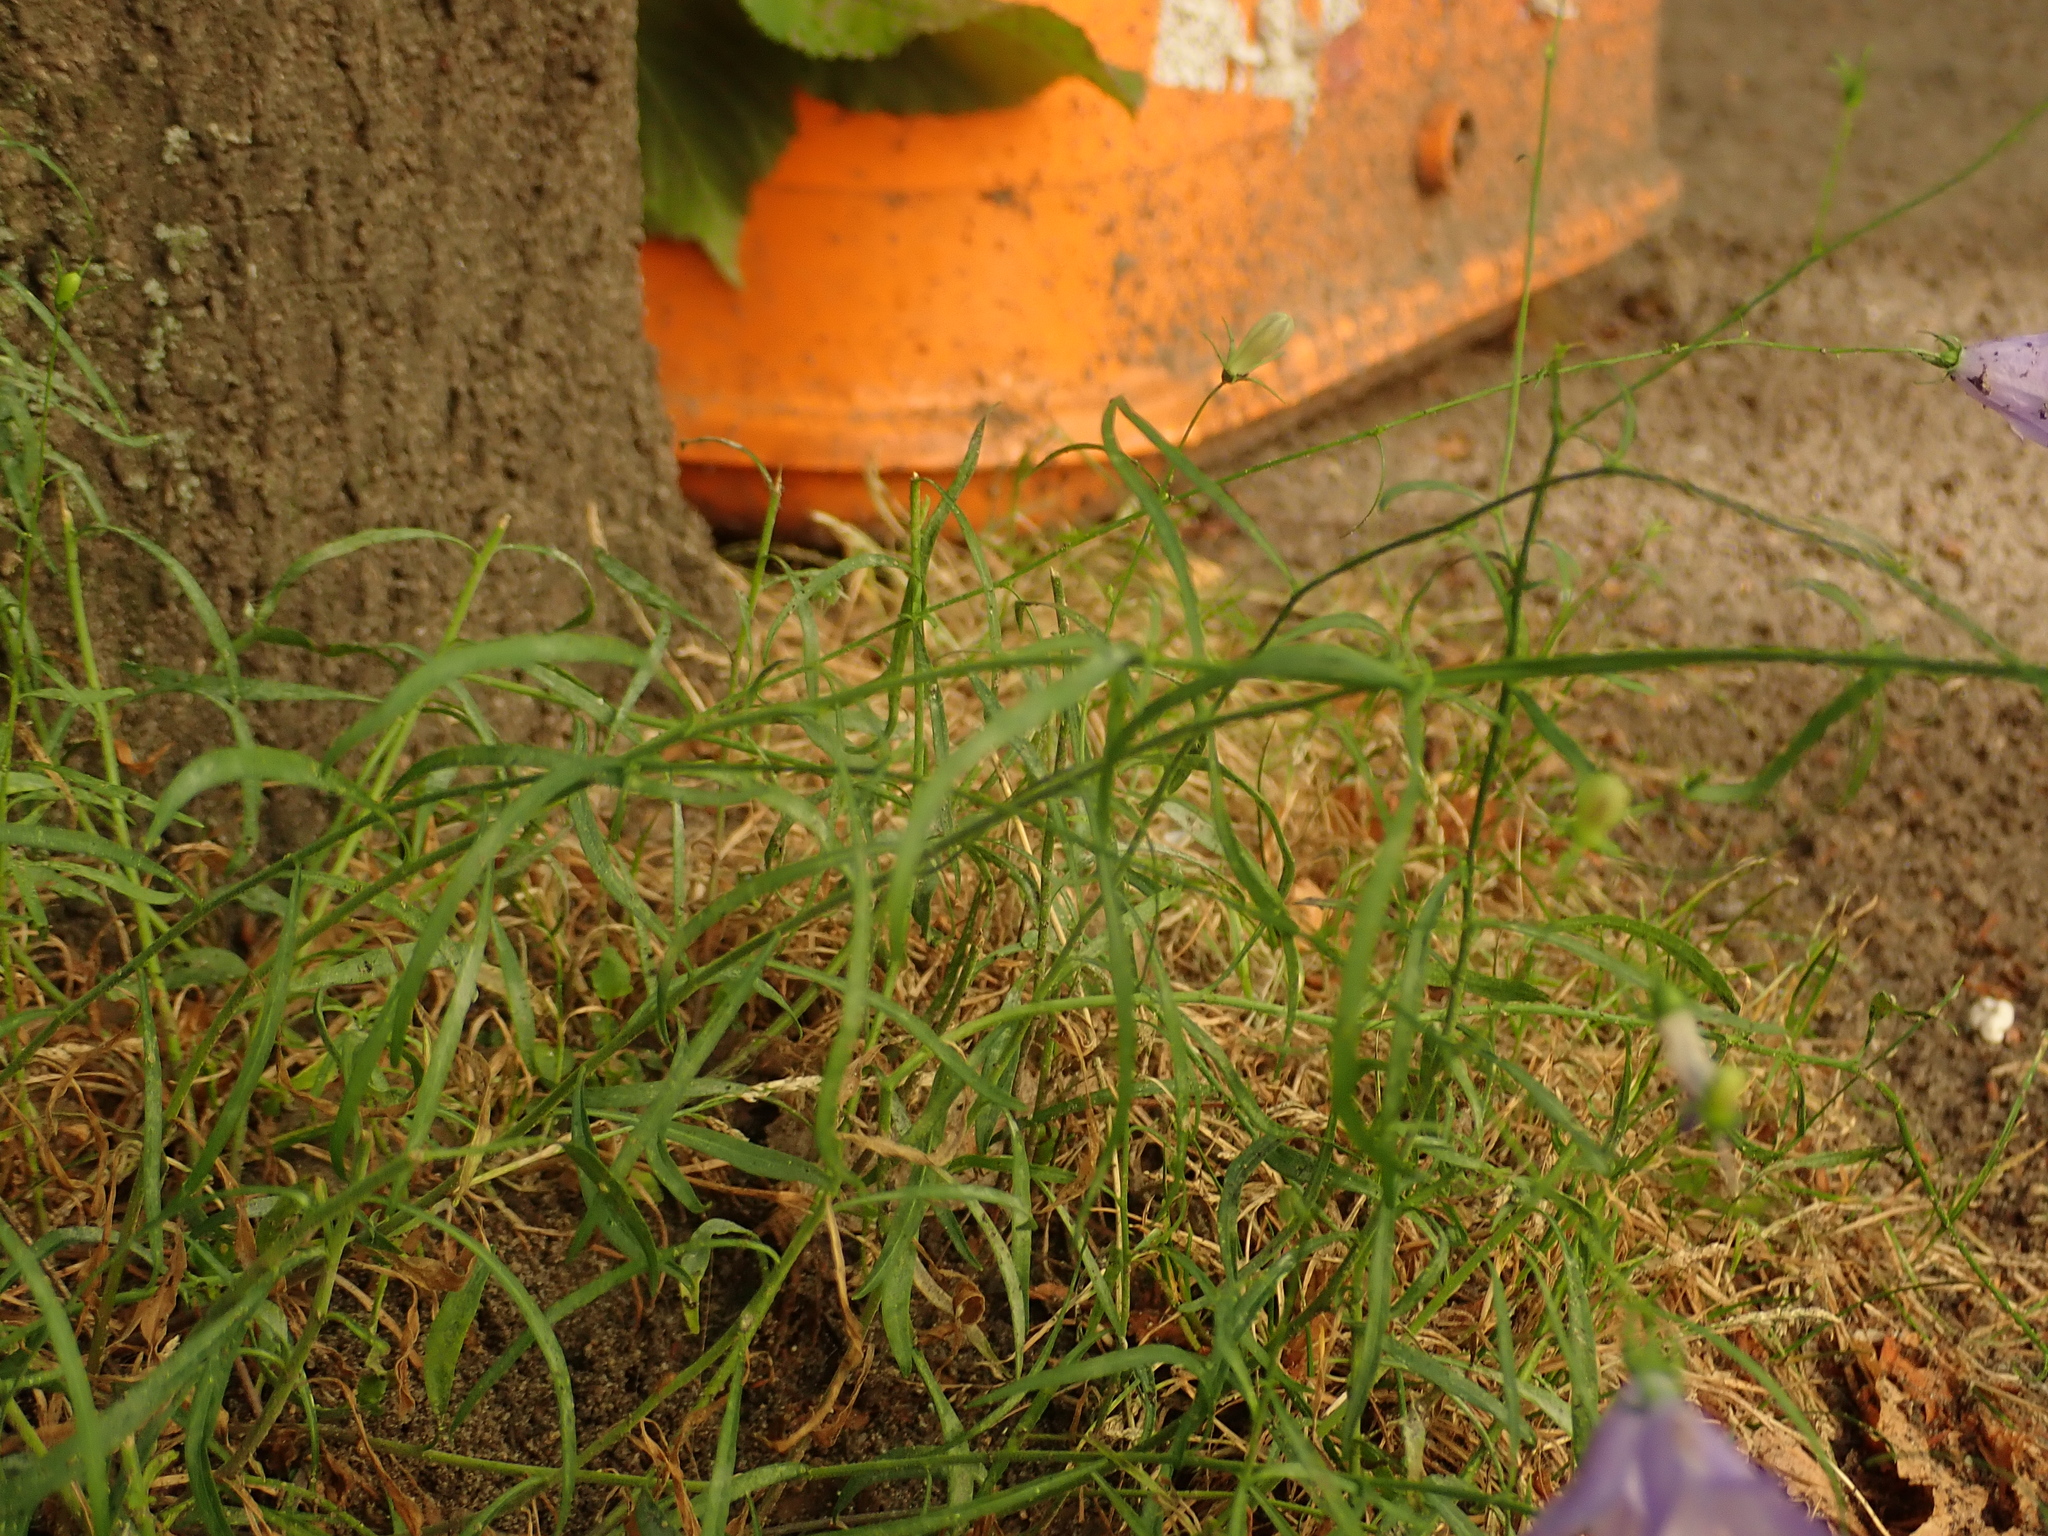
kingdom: Plantae
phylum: Tracheophyta
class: Magnoliopsida
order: Asterales
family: Campanulaceae
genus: Campanula
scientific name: Campanula rotundifolia
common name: Harebell
